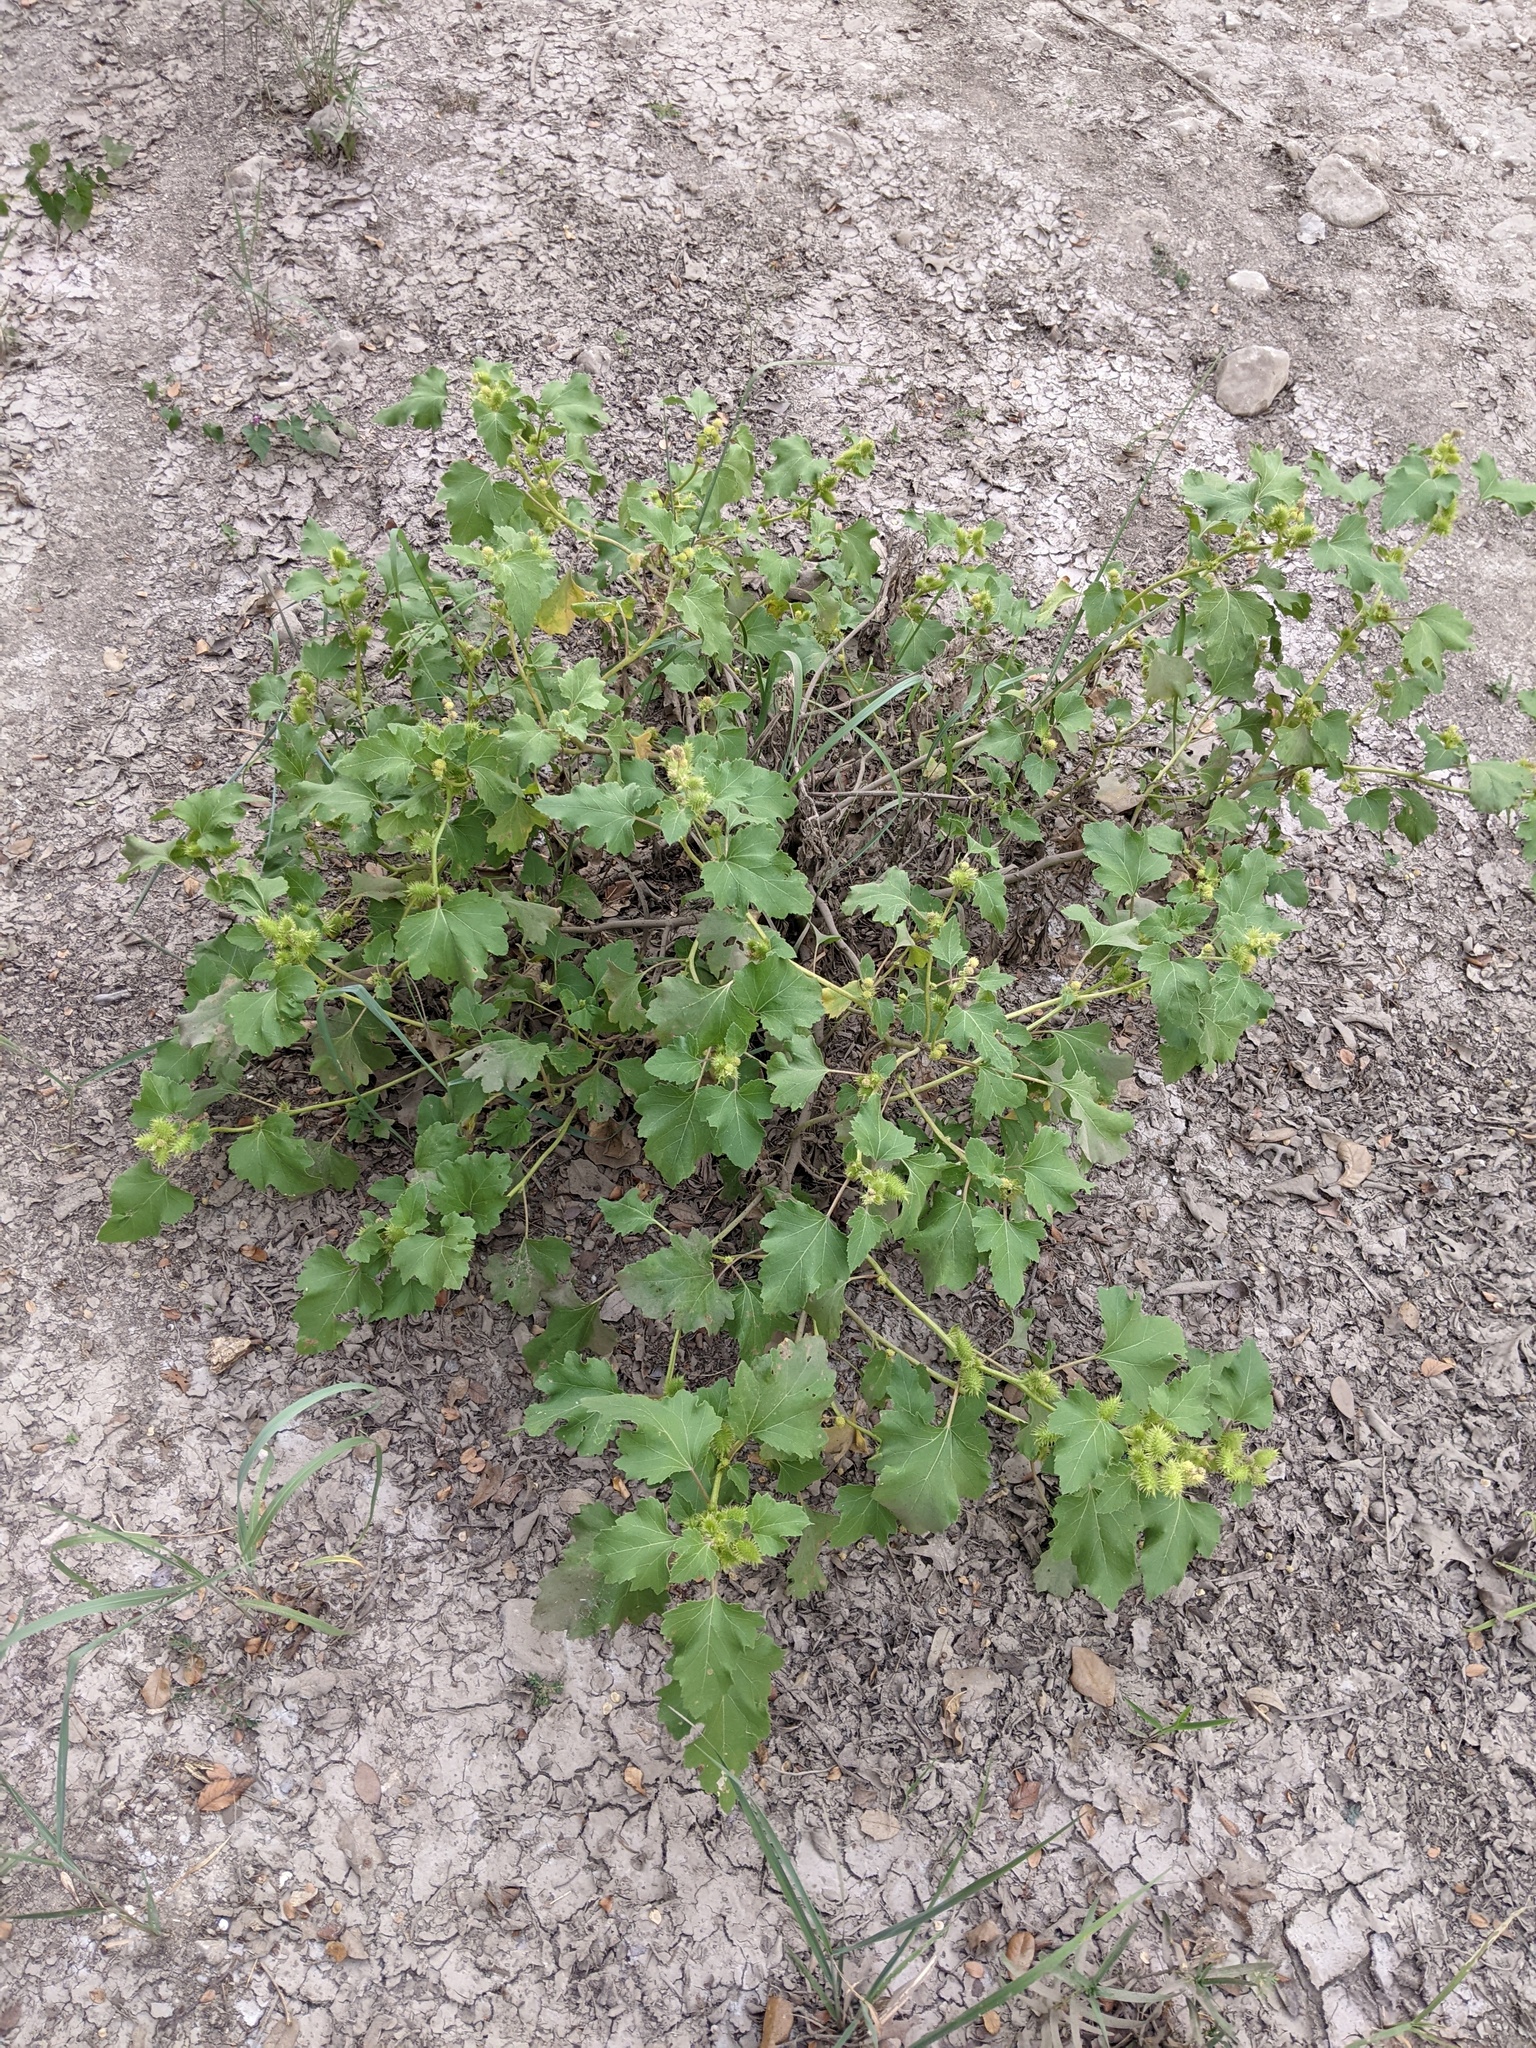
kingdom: Plantae
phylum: Tracheophyta
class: Magnoliopsida
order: Asterales
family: Asteraceae
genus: Xanthium
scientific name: Xanthium strumarium
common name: Rough cocklebur
